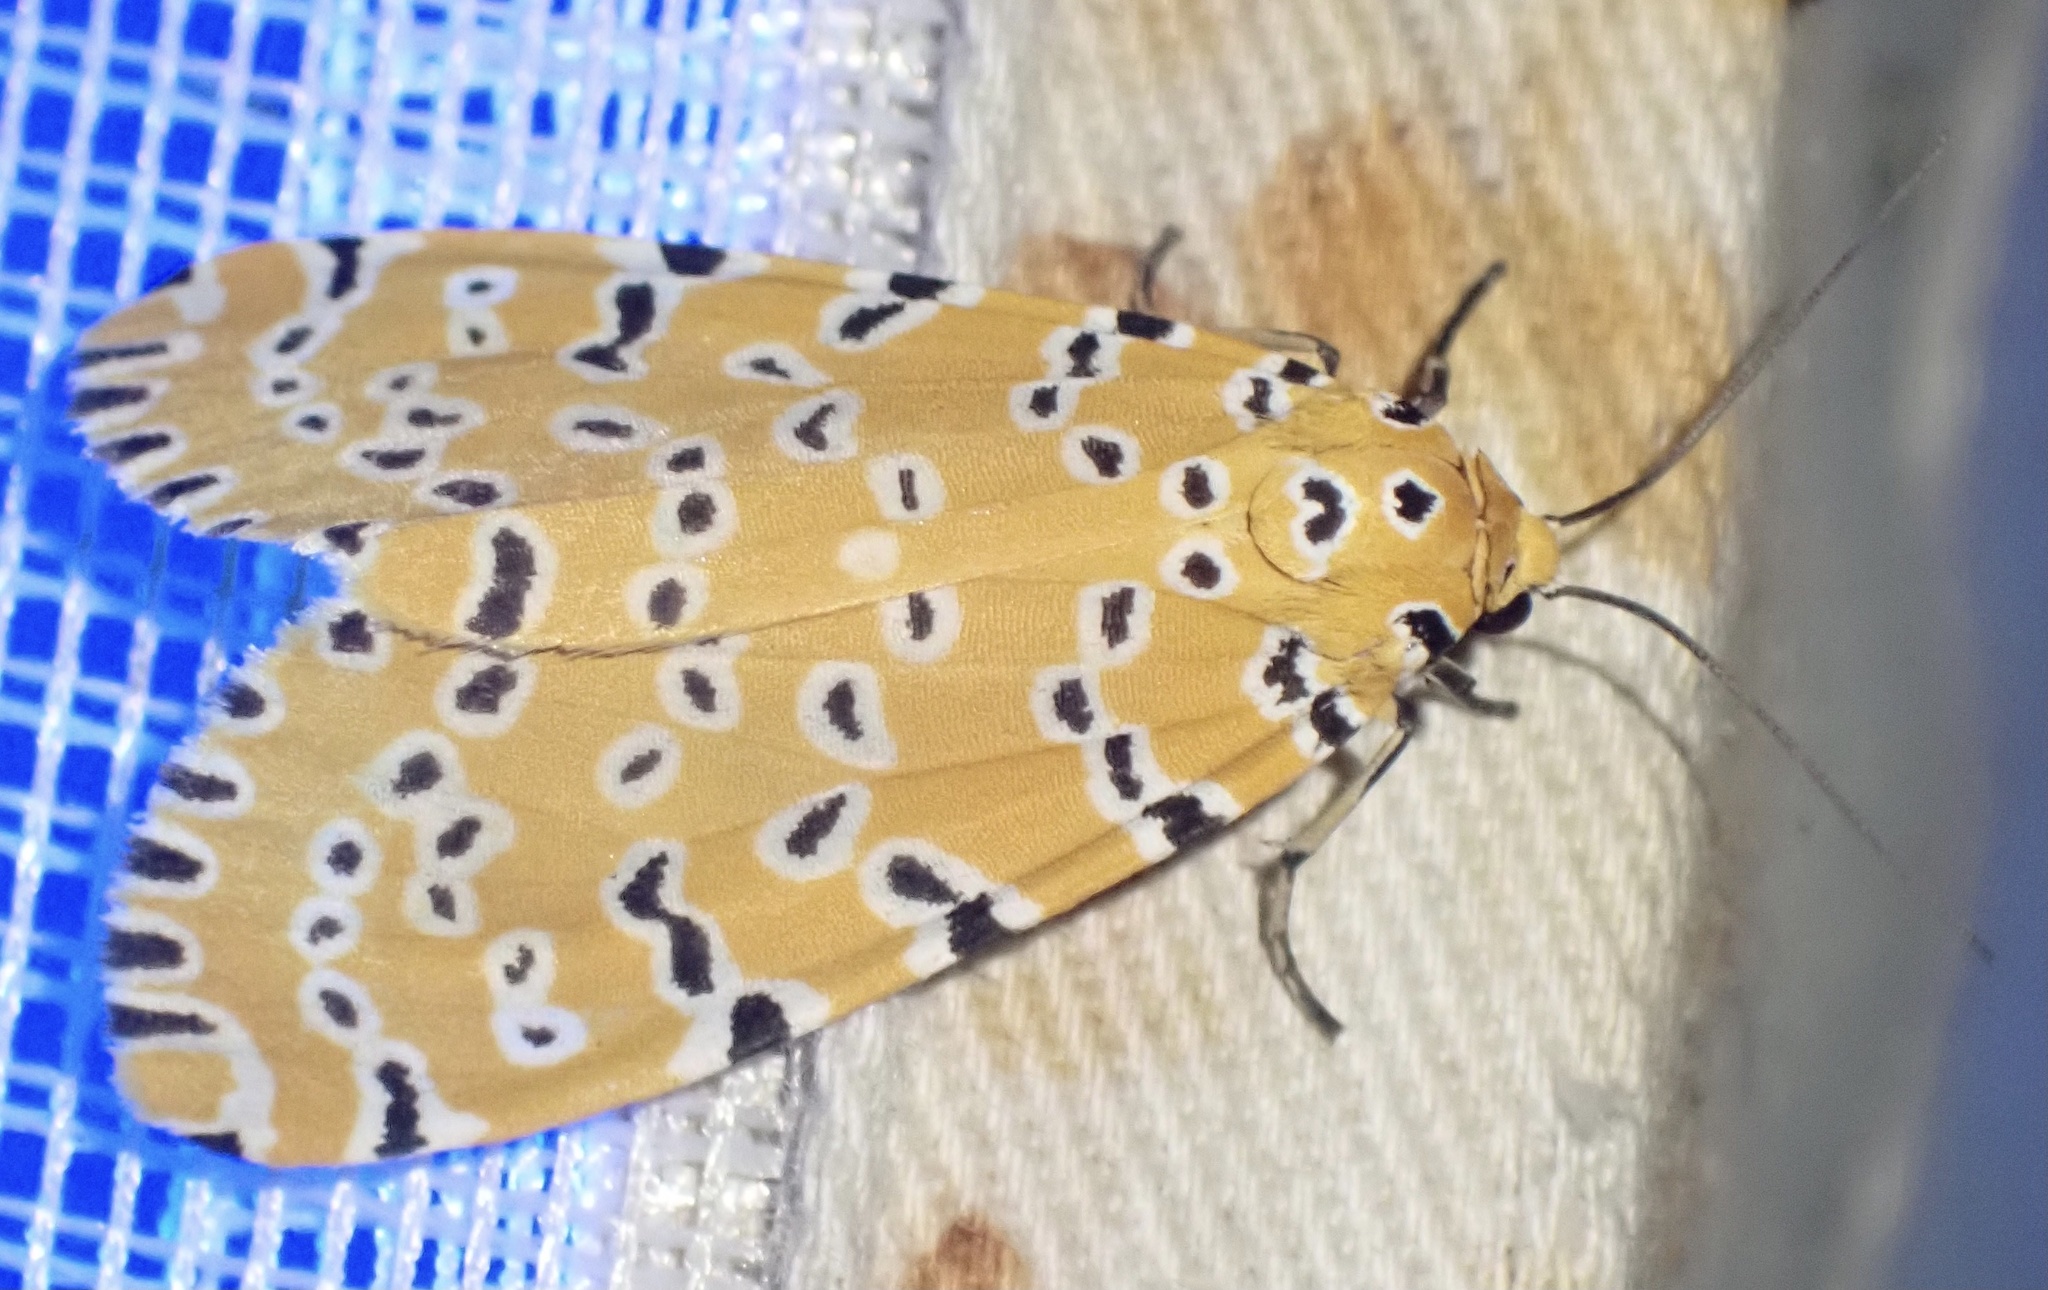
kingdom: Animalia
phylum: Arthropoda
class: Insecta
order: Lepidoptera
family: Erebidae
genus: Argina
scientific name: Argina Alytarchia amanda
